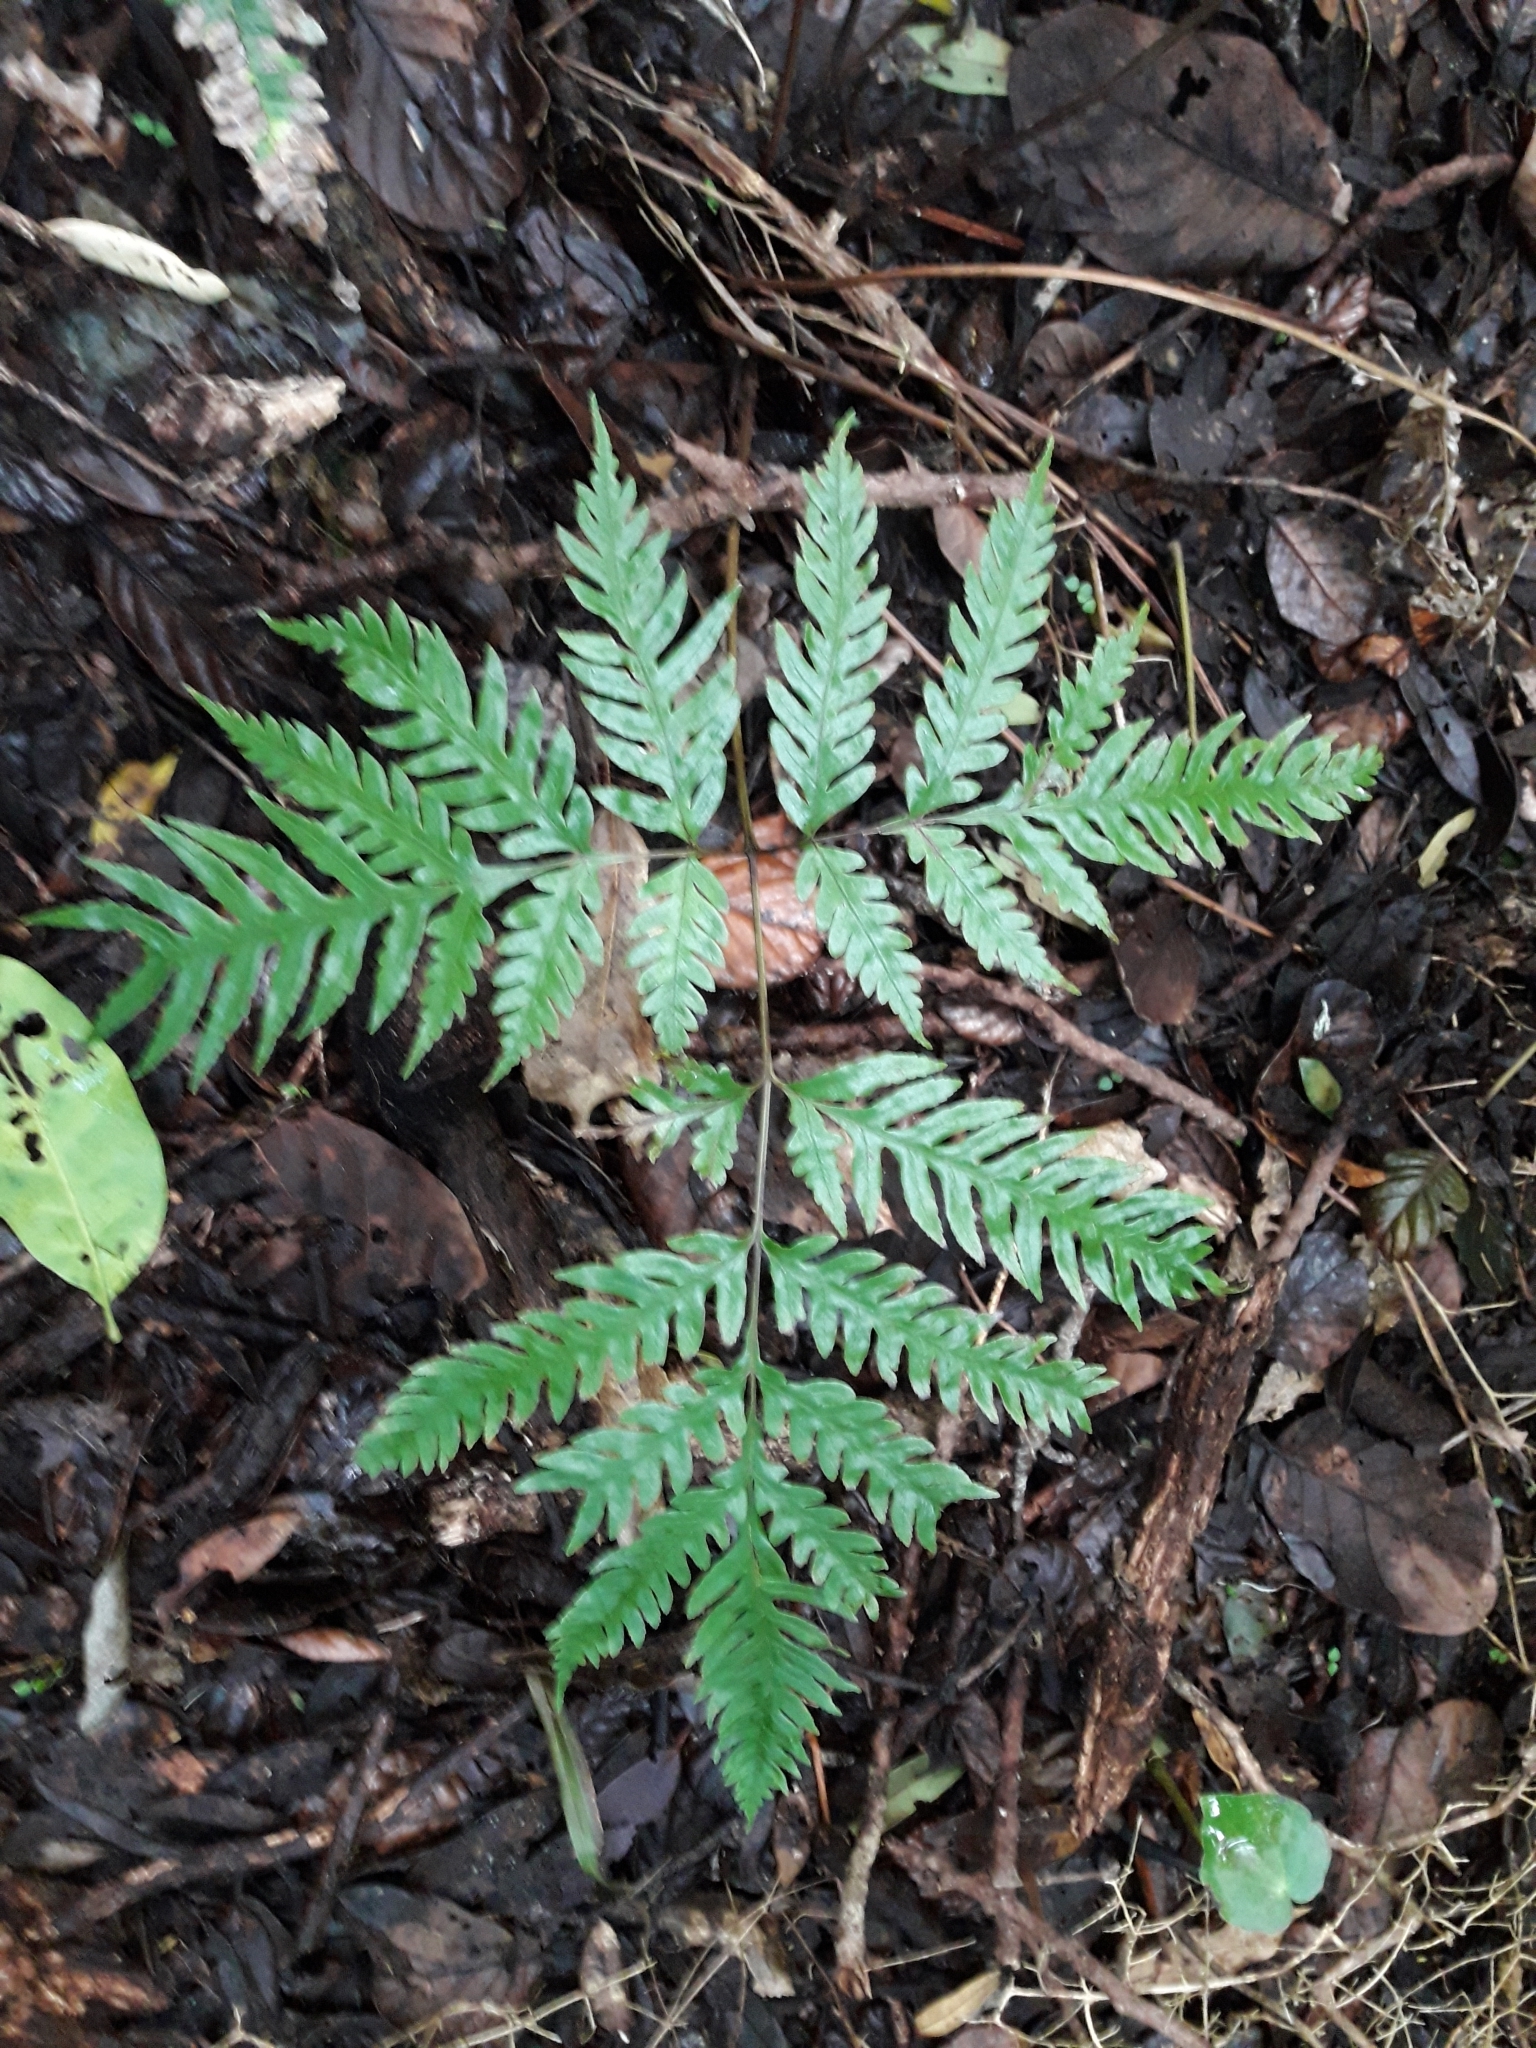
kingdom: Plantae
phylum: Tracheophyta
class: Polypodiopsida
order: Polypodiales
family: Pteridaceae
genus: Pteris
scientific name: Pteris carsei
